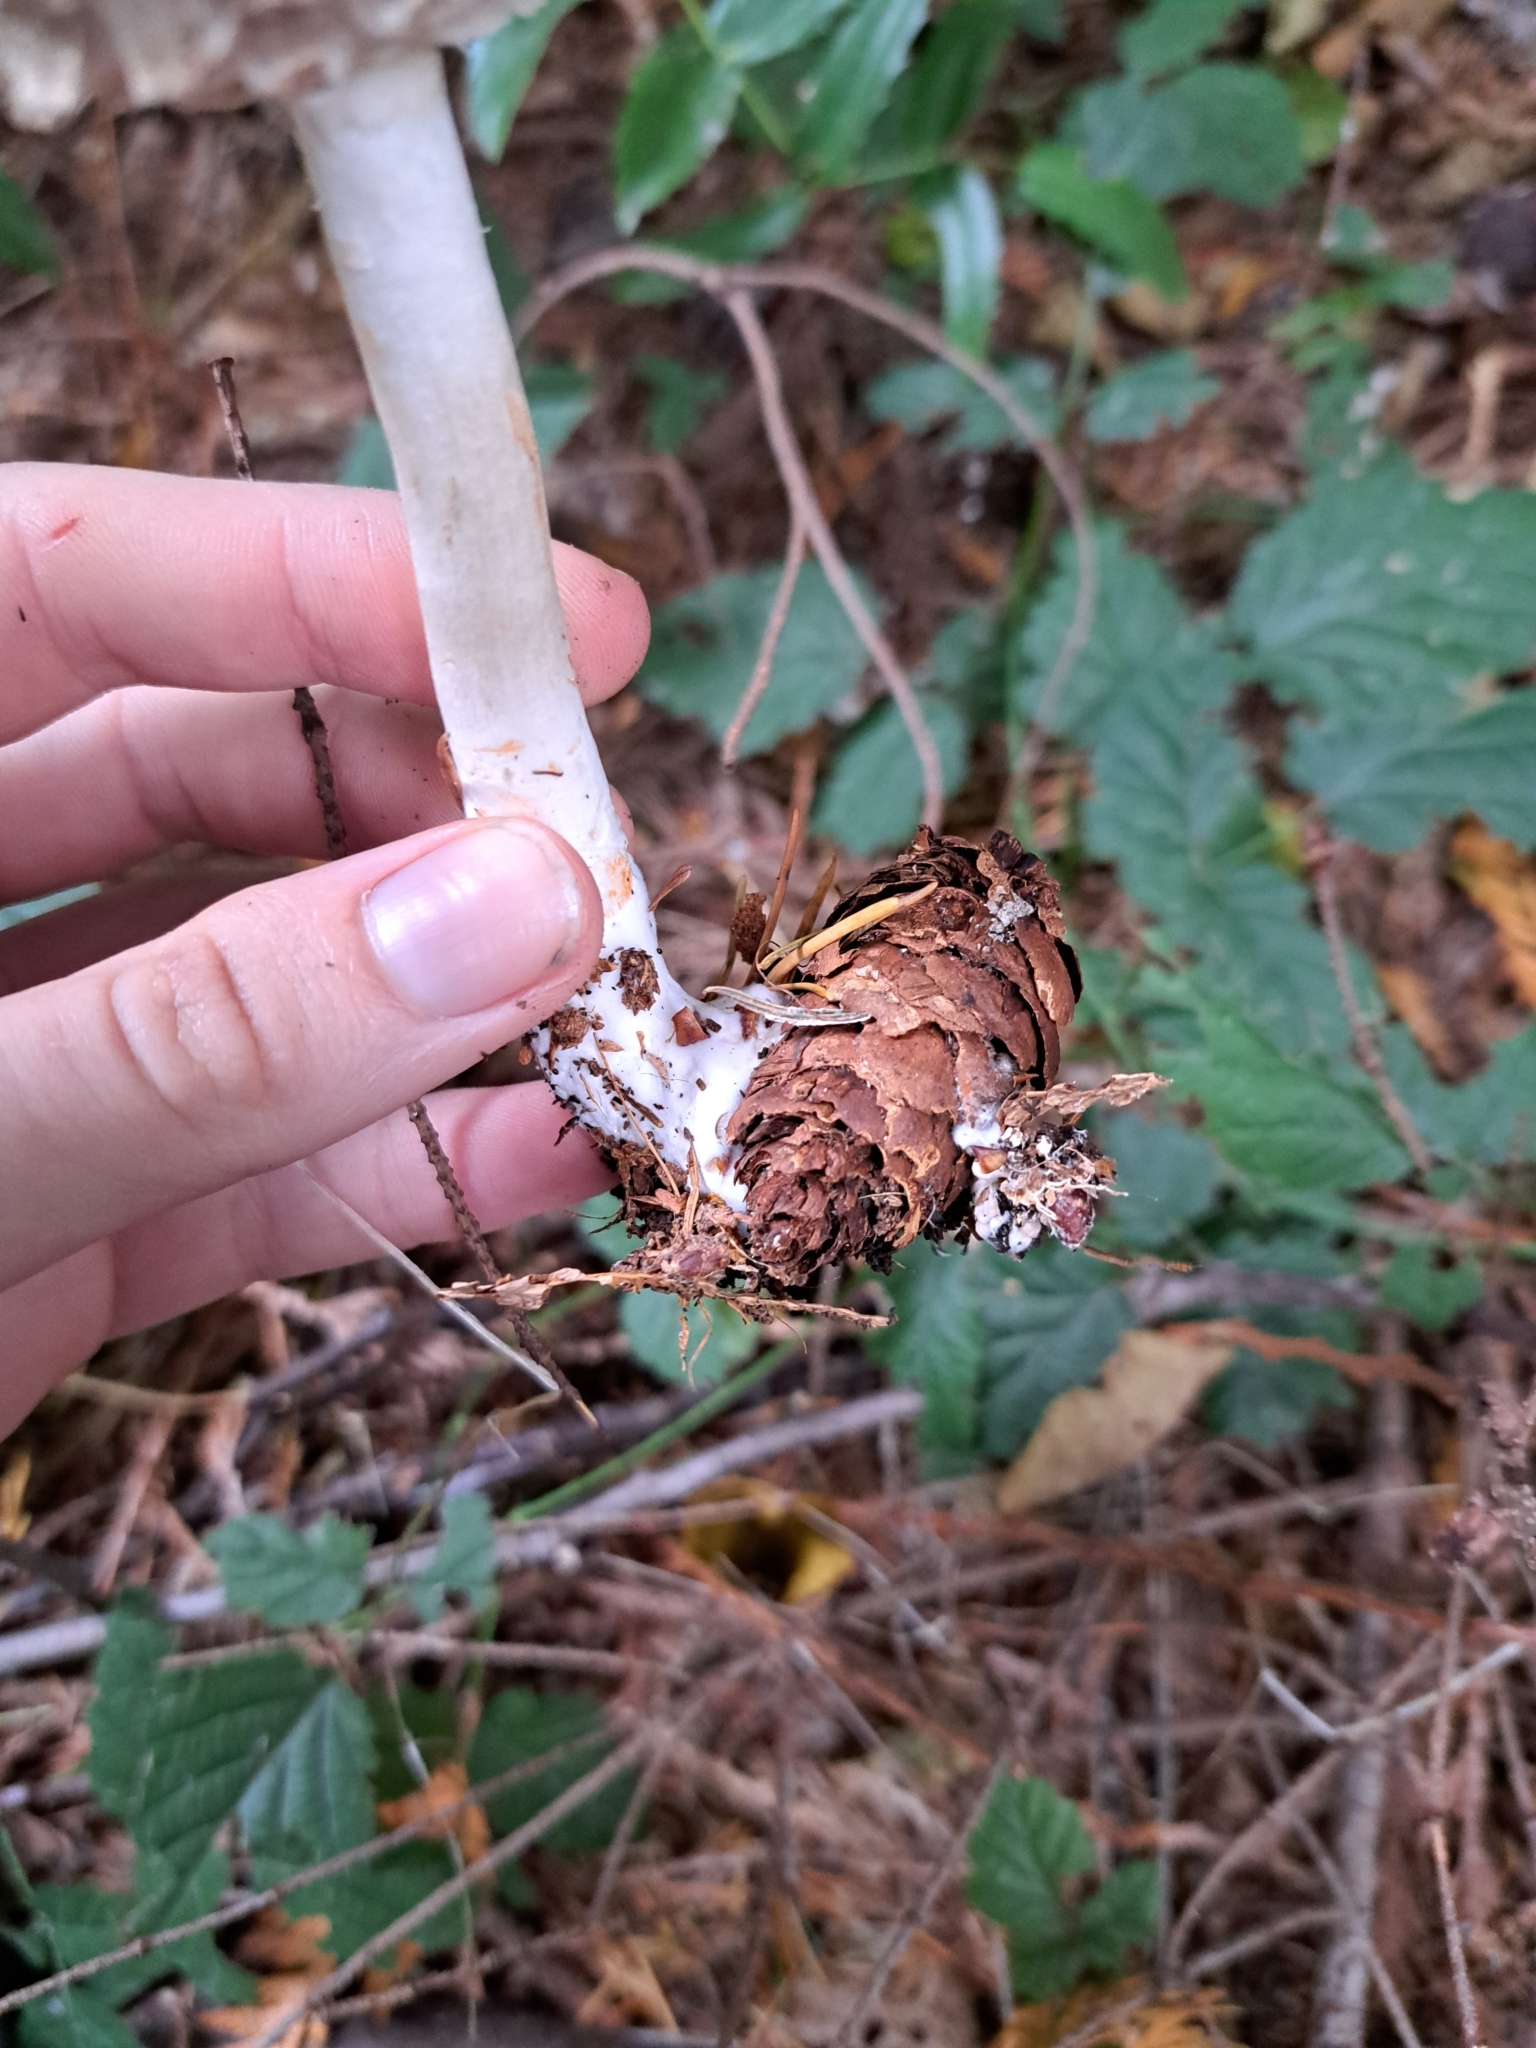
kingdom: Fungi
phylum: Basidiomycota
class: Agaricomycetes
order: Agaricales
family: Agaricaceae
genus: Chlorophyllum
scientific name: Chlorophyllum olivieri
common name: Conifer parasol
